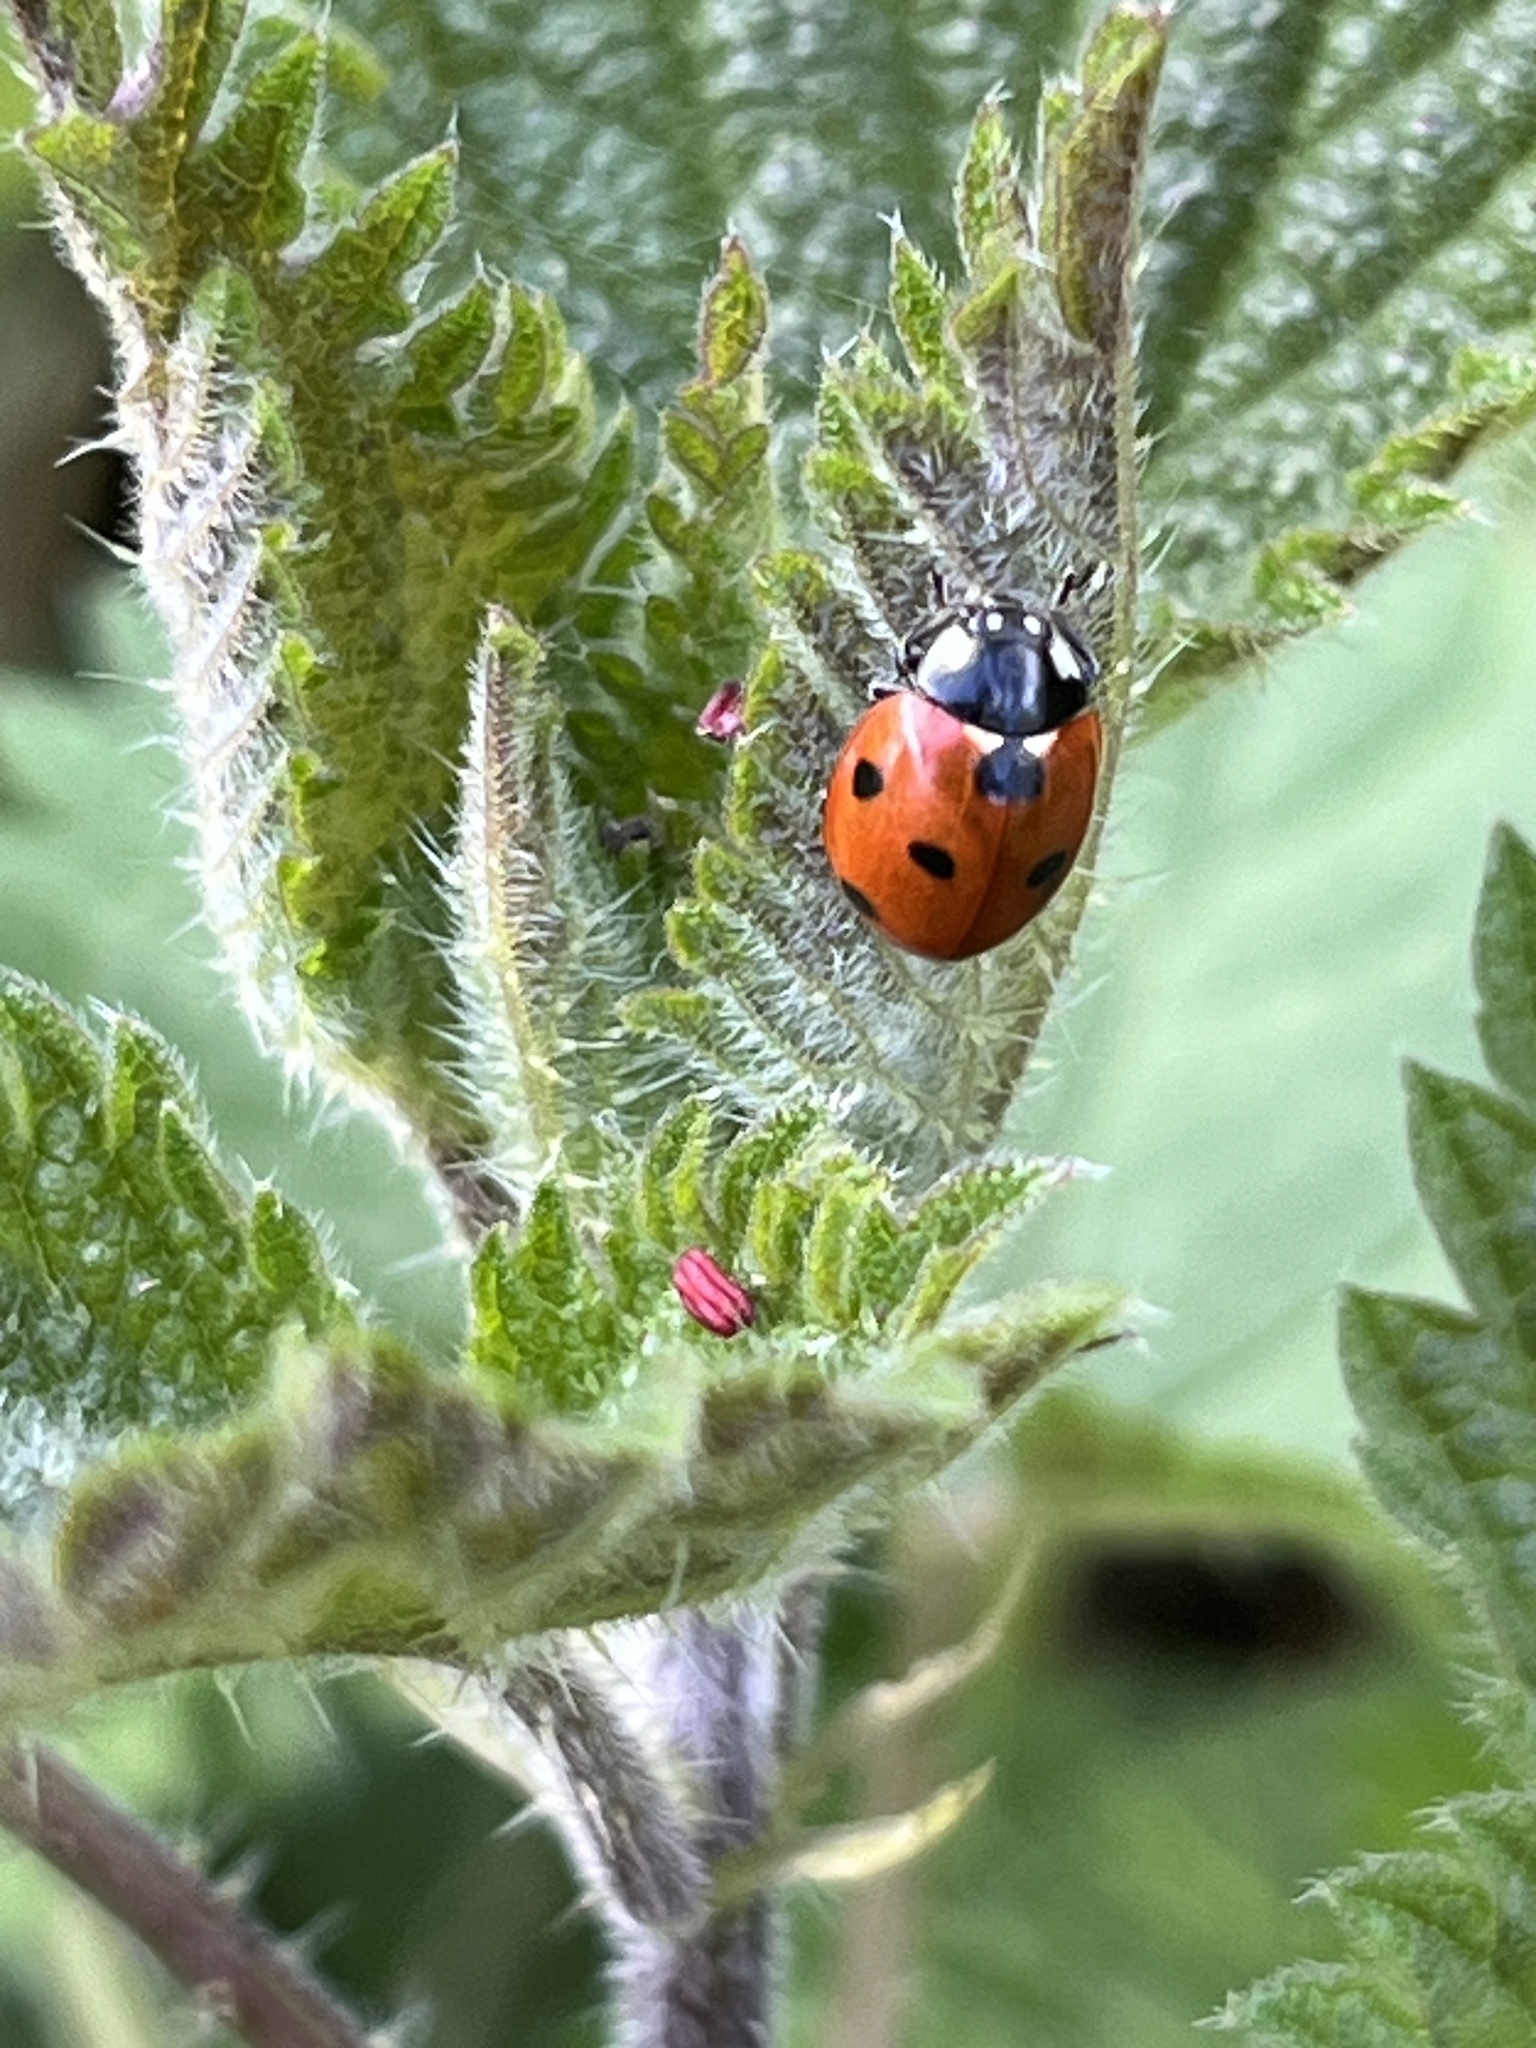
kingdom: Animalia
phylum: Arthropoda
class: Insecta
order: Coleoptera
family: Coccinellidae
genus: Coccinella
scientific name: Coccinella septempunctata
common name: Sevenspotted lady beetle
